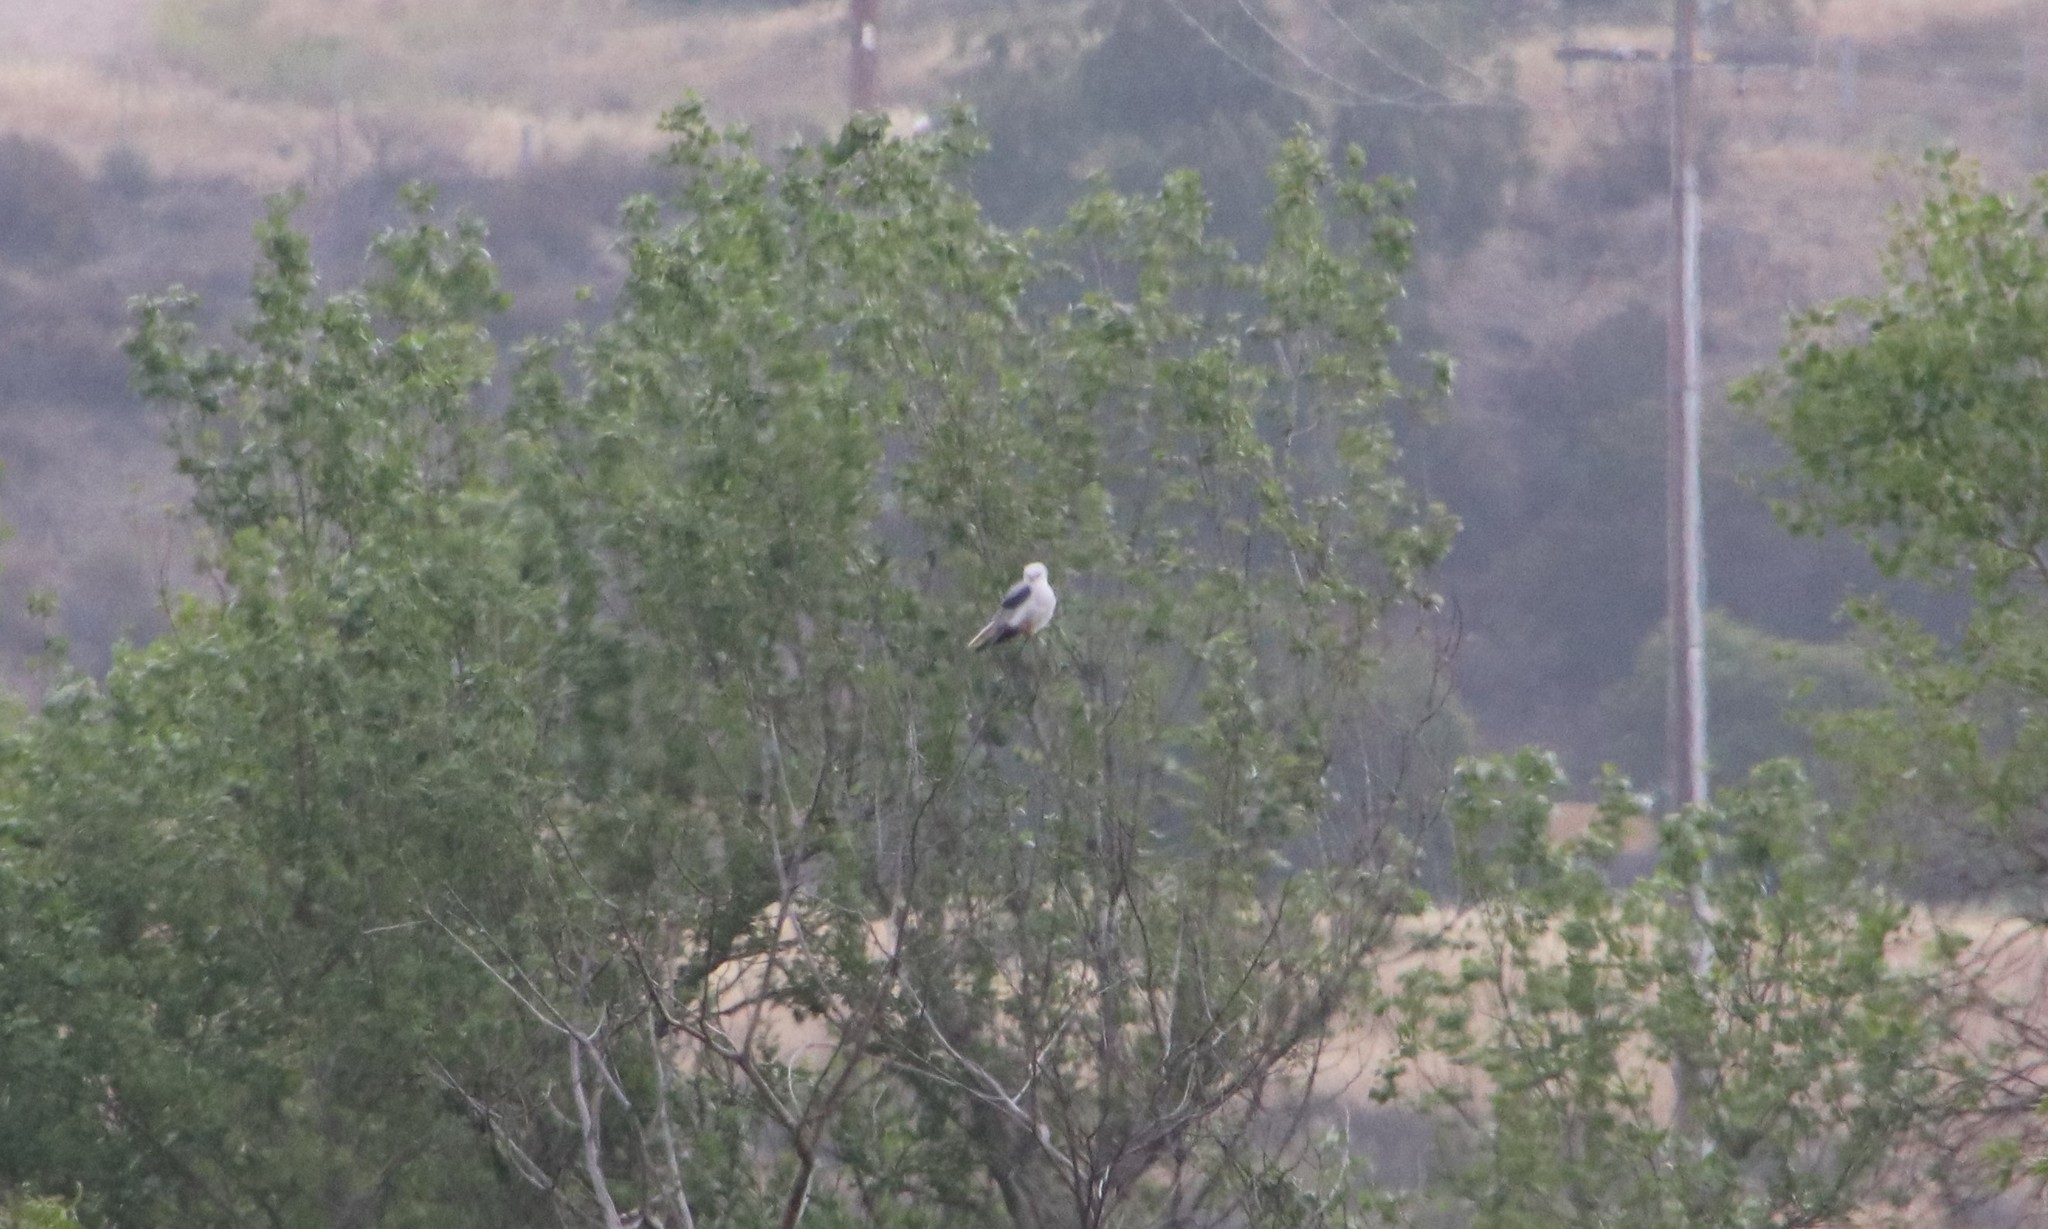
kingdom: Animalia
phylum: Chordata
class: Aves
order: Accipitriformes
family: Accipitridae
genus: Elanus
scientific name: Elanus leucurus
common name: White-tailed kite
